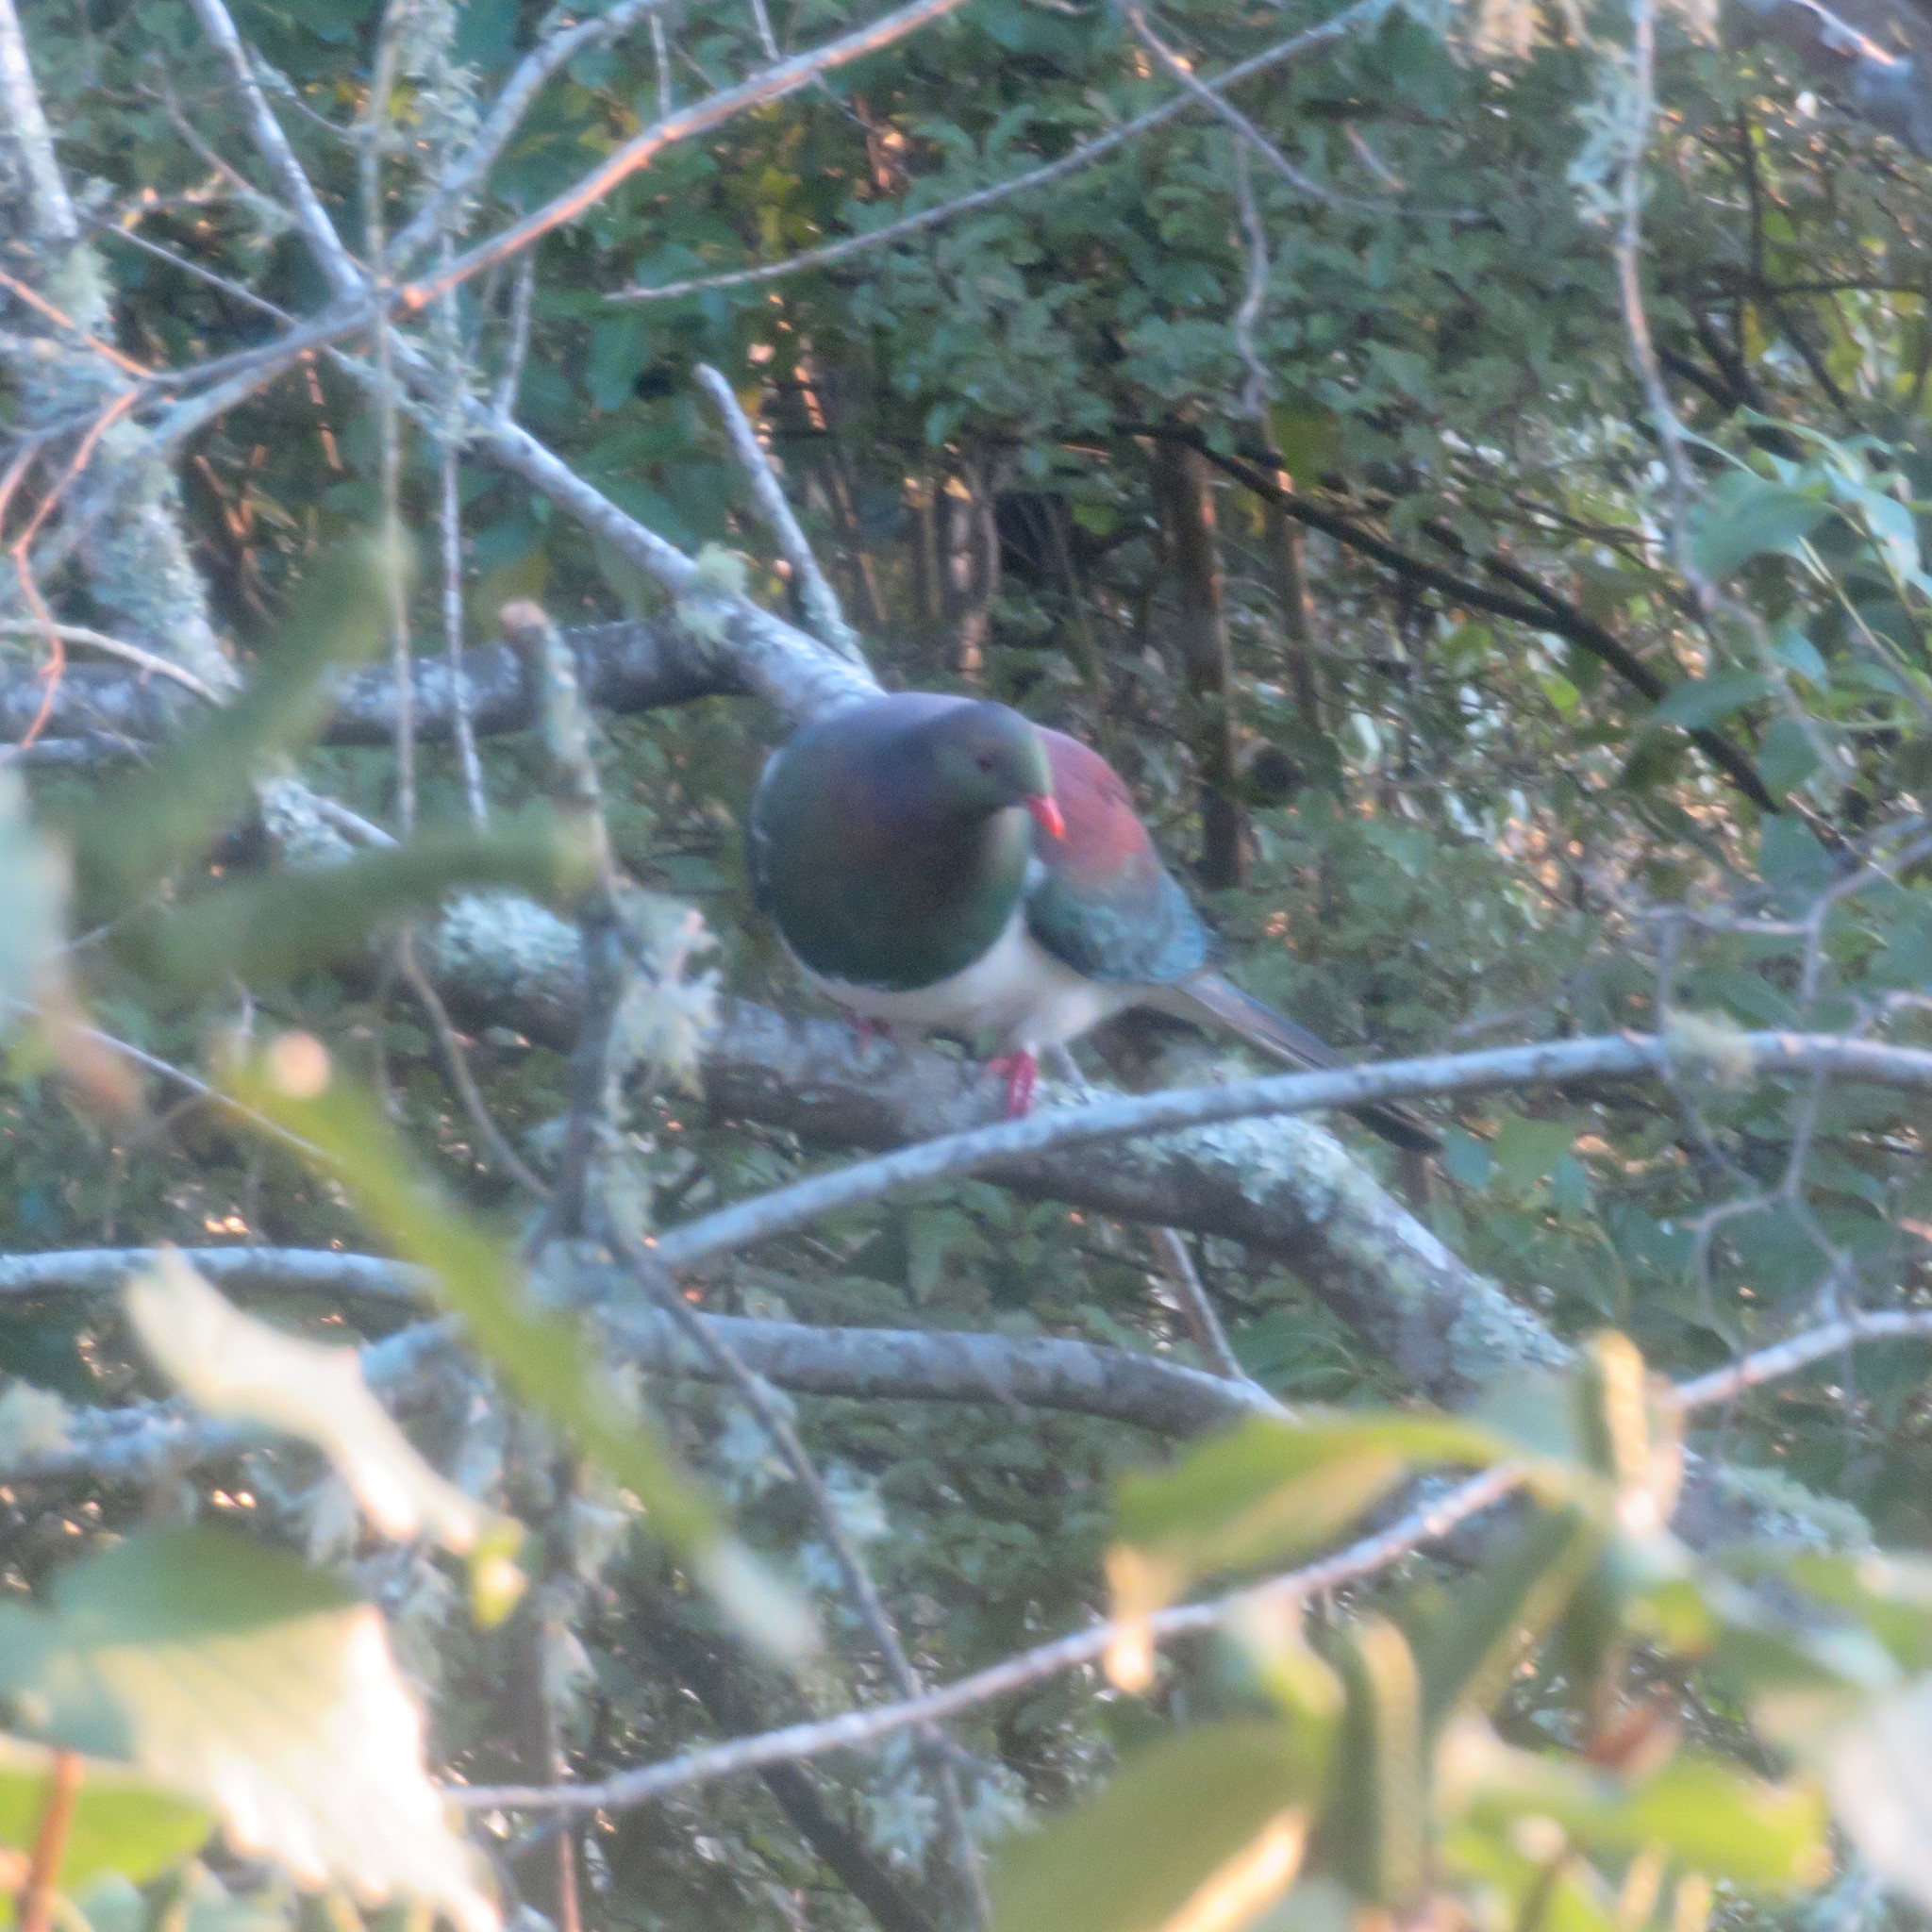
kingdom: Animalia
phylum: Chordata
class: Aves
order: Columbiformes
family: Columbidae
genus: Hemiphaga
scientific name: Hemiphaga novaeseelandiae
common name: New zealand pigeon
